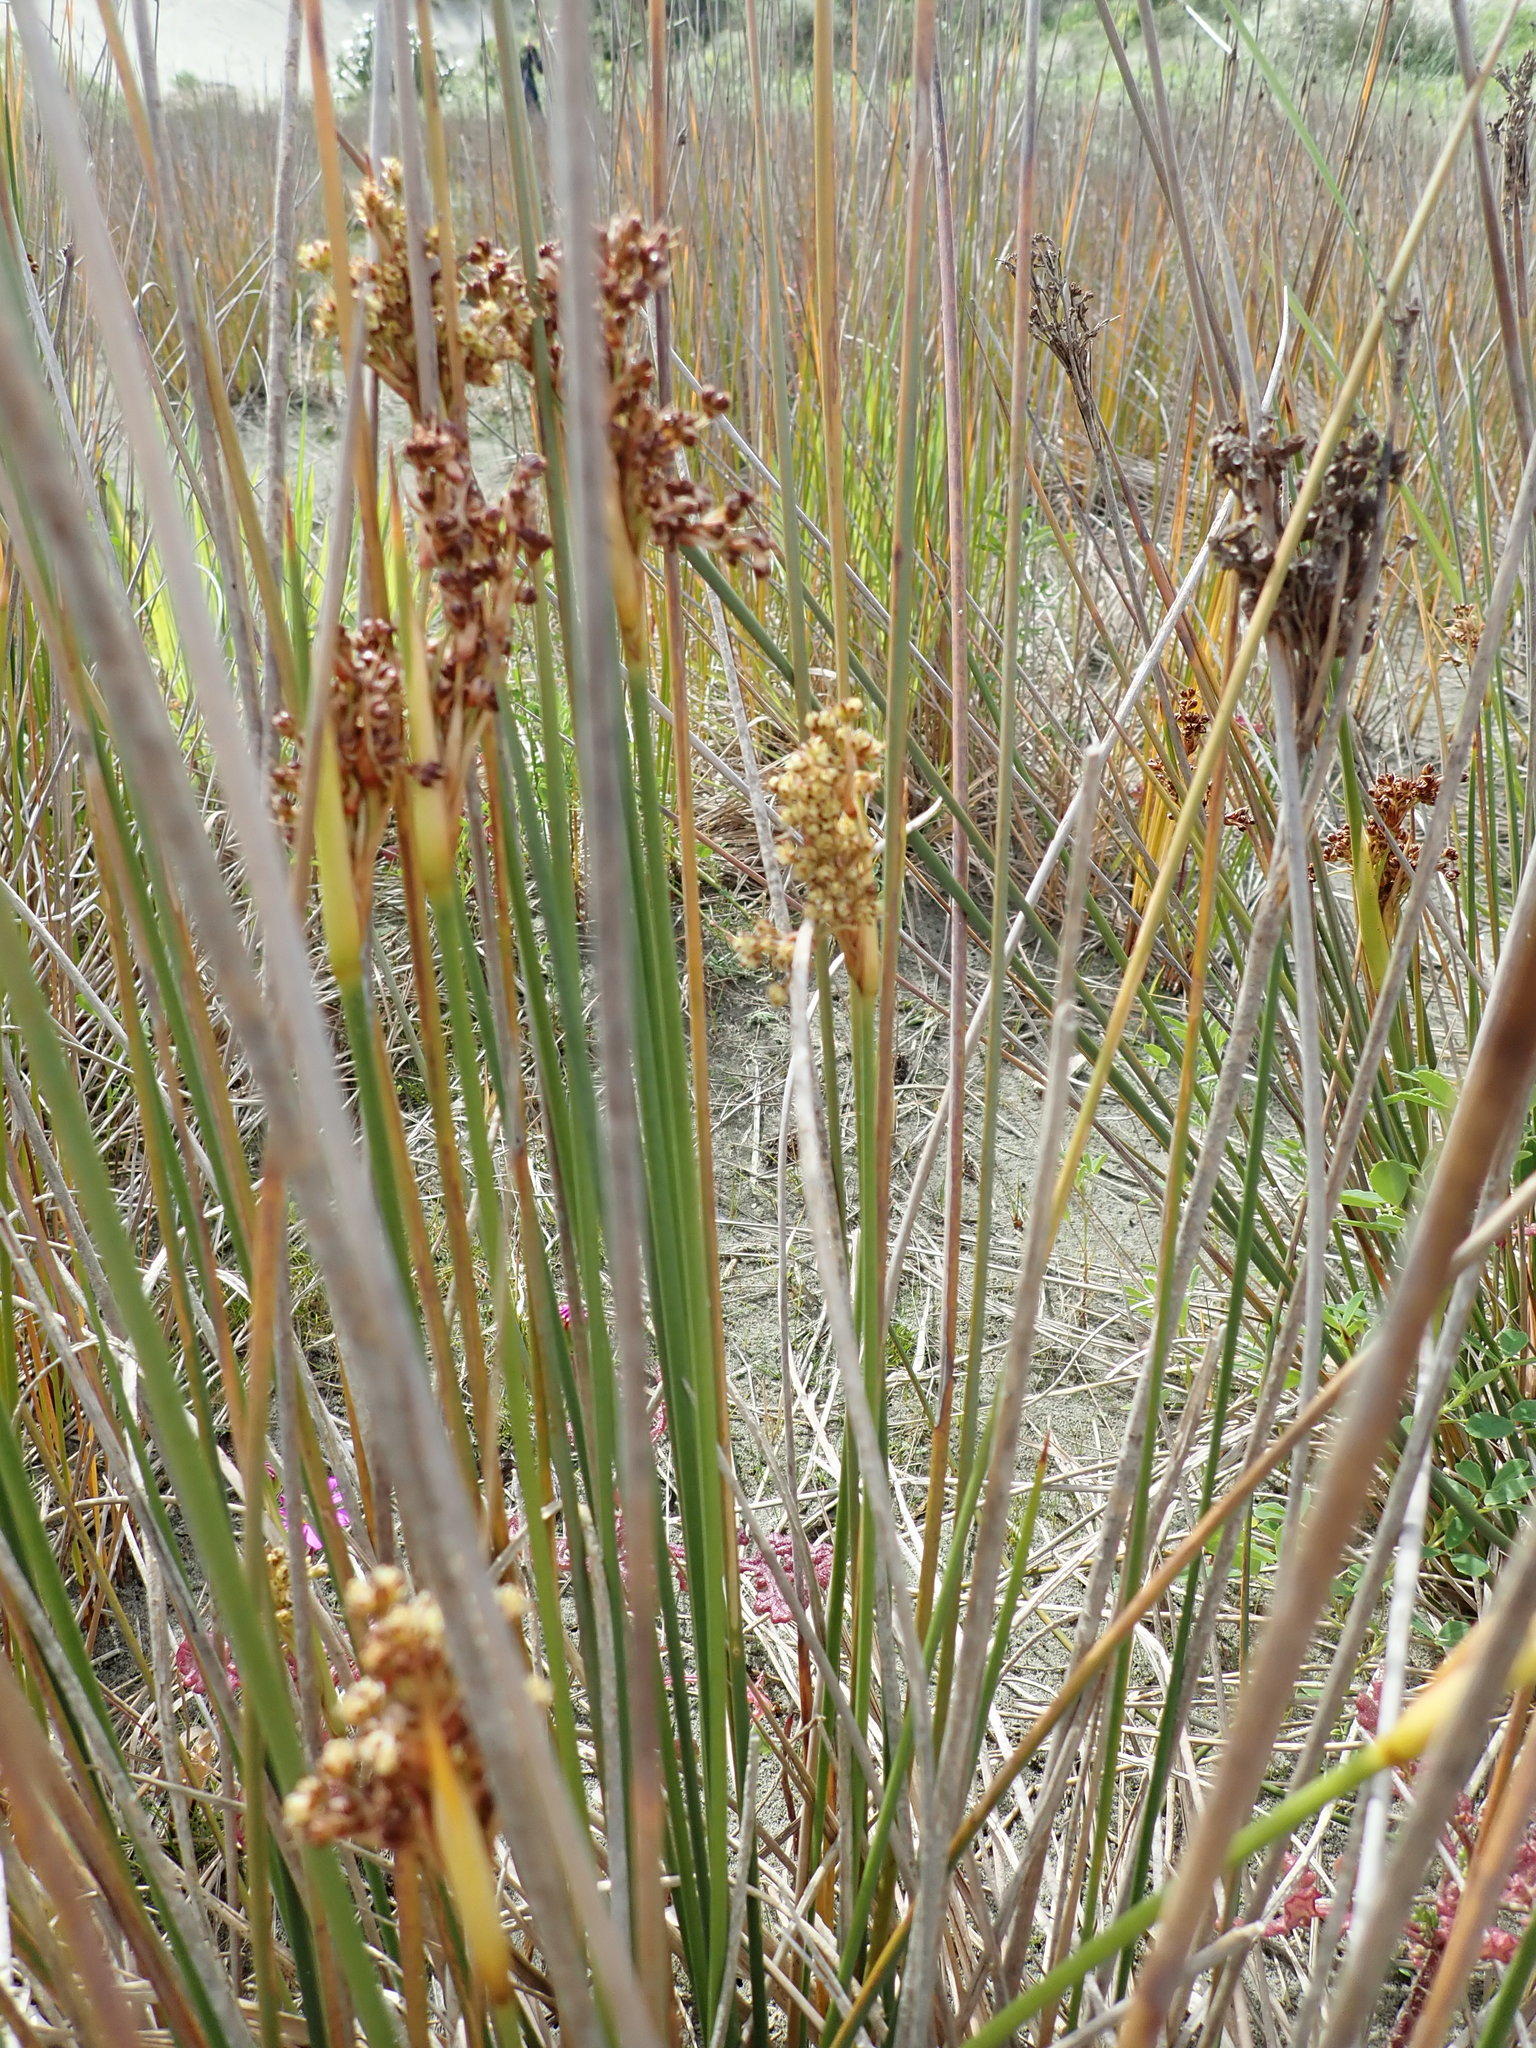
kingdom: Plantae
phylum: Tracheophyta
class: Liliopsida
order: Poales
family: Juncaceae
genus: Juncus
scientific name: Juncus acutus
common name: Sharp rush
